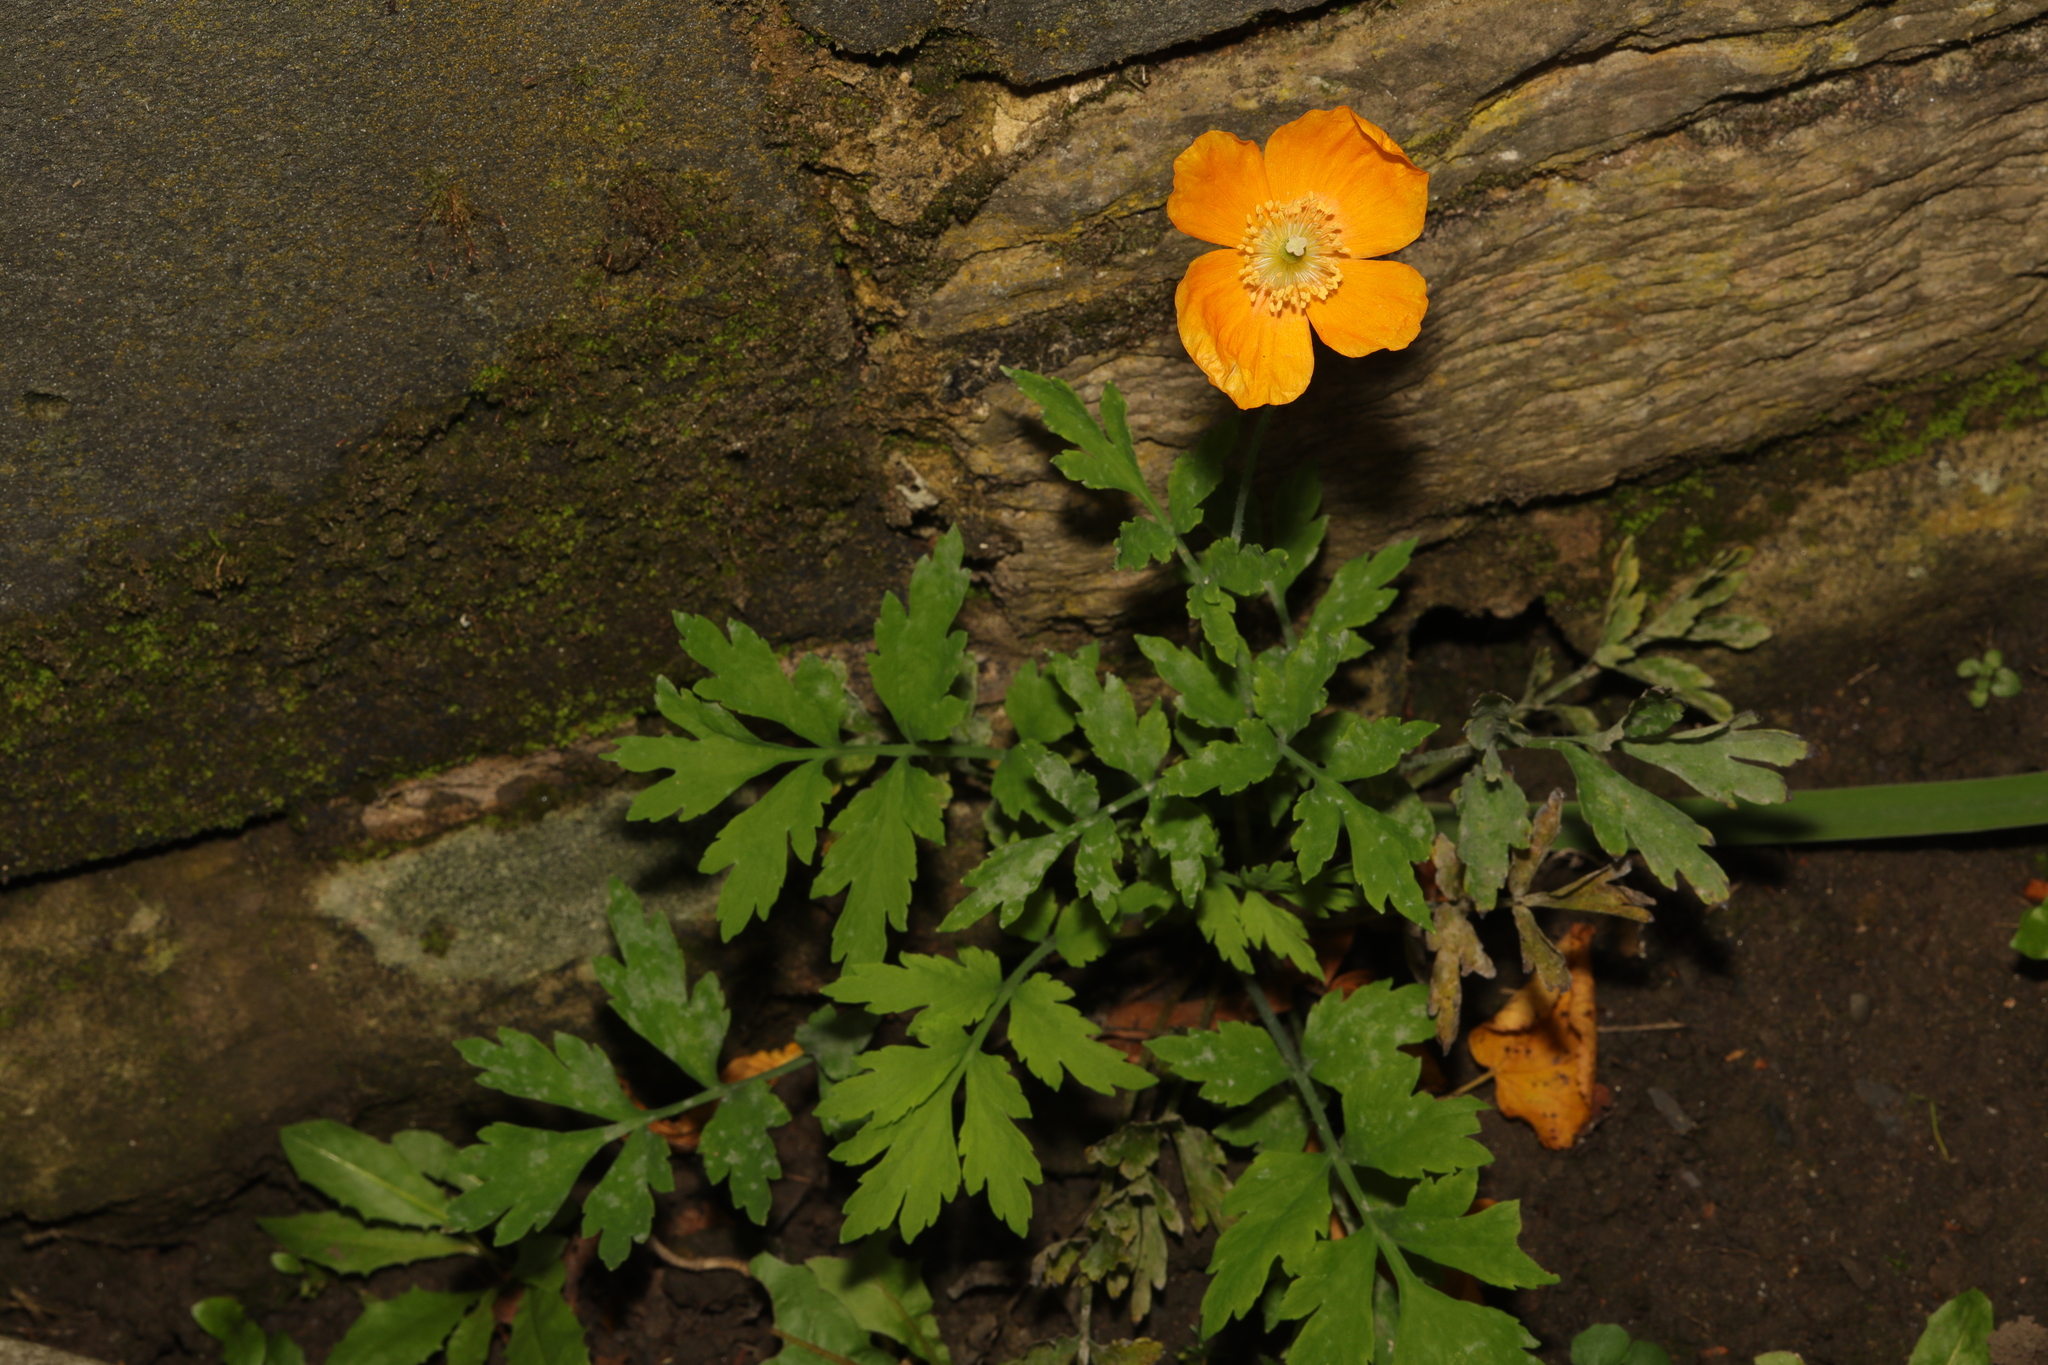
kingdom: Plantae
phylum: Tracheophyta
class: Magnoliopsida
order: Ranunculales
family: Papaveraceae
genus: Papaver
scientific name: Papaver cambricum
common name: Poppy
